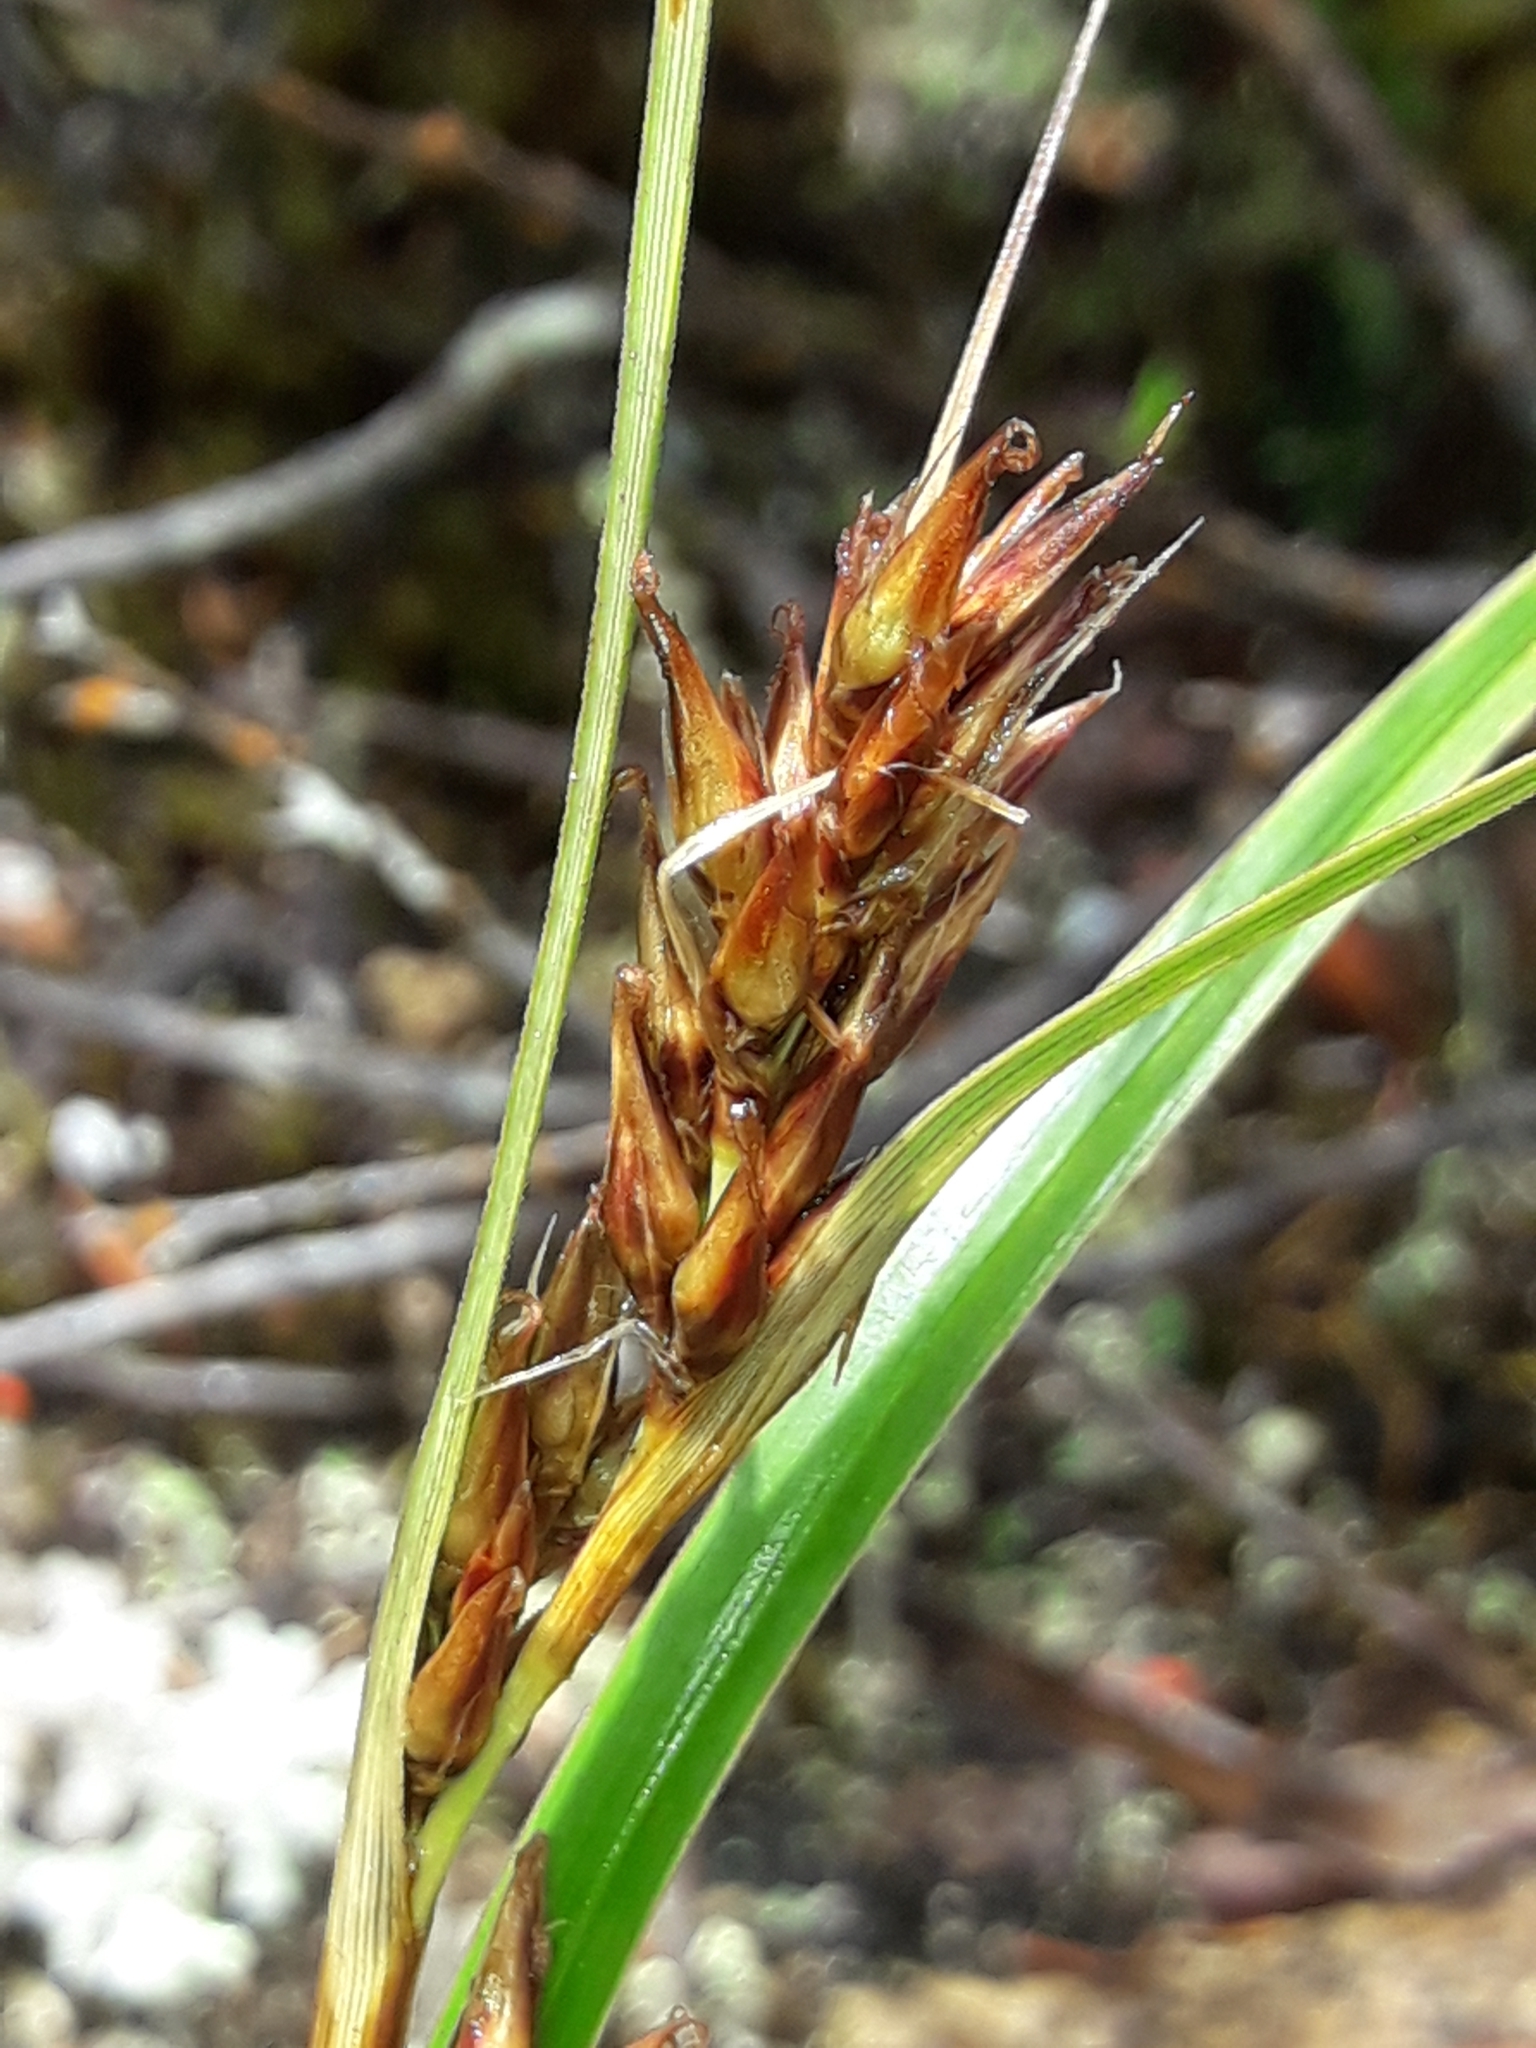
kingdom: Plantae
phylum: Tracheophyta
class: Liliopsida
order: Poales
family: Cyperaceae
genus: Morelotia
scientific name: Morelotia affinis
